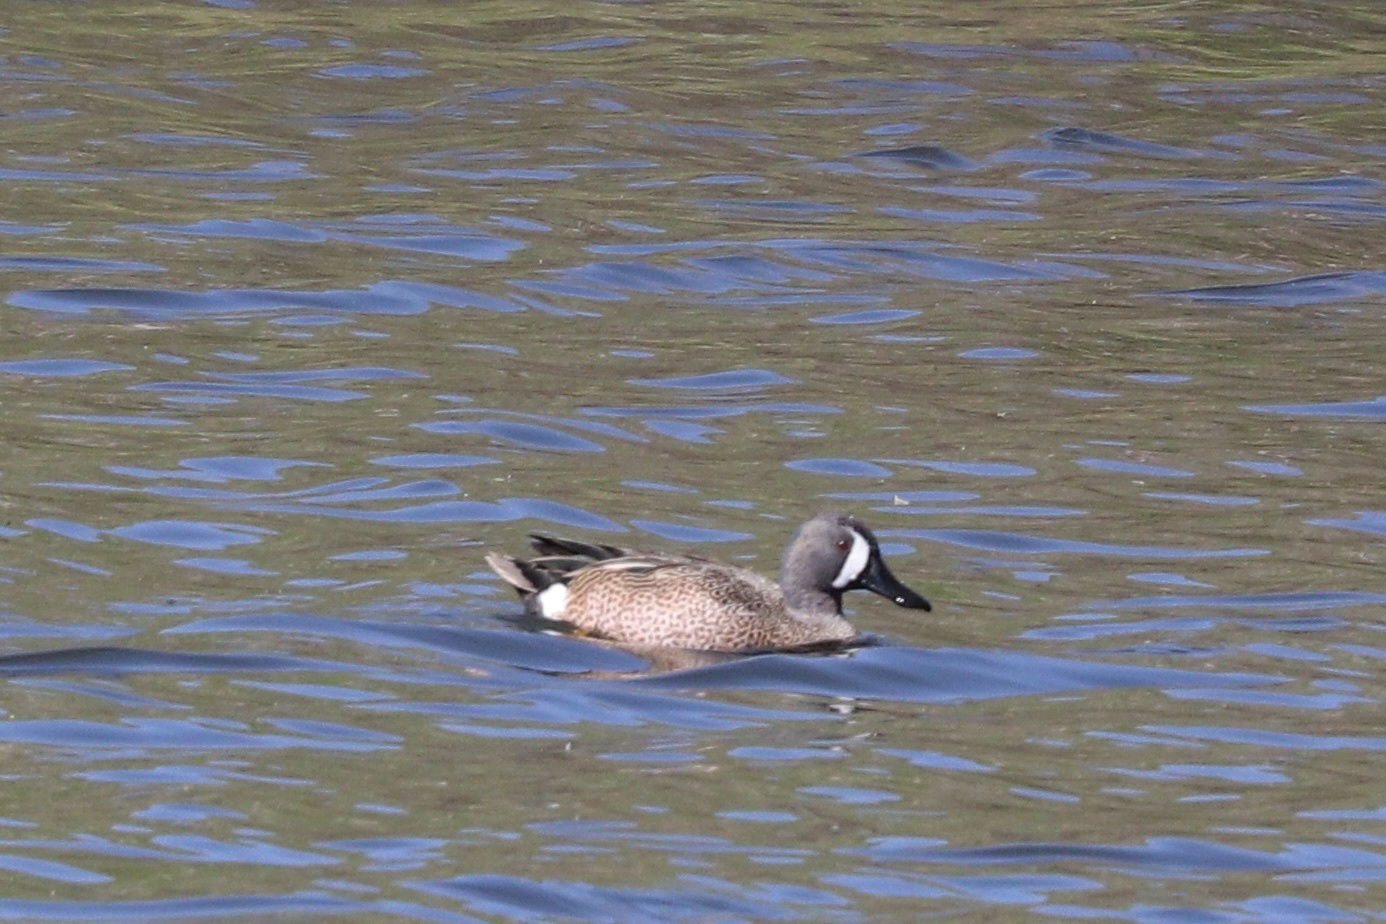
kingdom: Animalia
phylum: Chordata
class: Aves
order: Anseriformes
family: Anatidae
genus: Spatula
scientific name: Spatula discors
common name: Blue-winged teal
